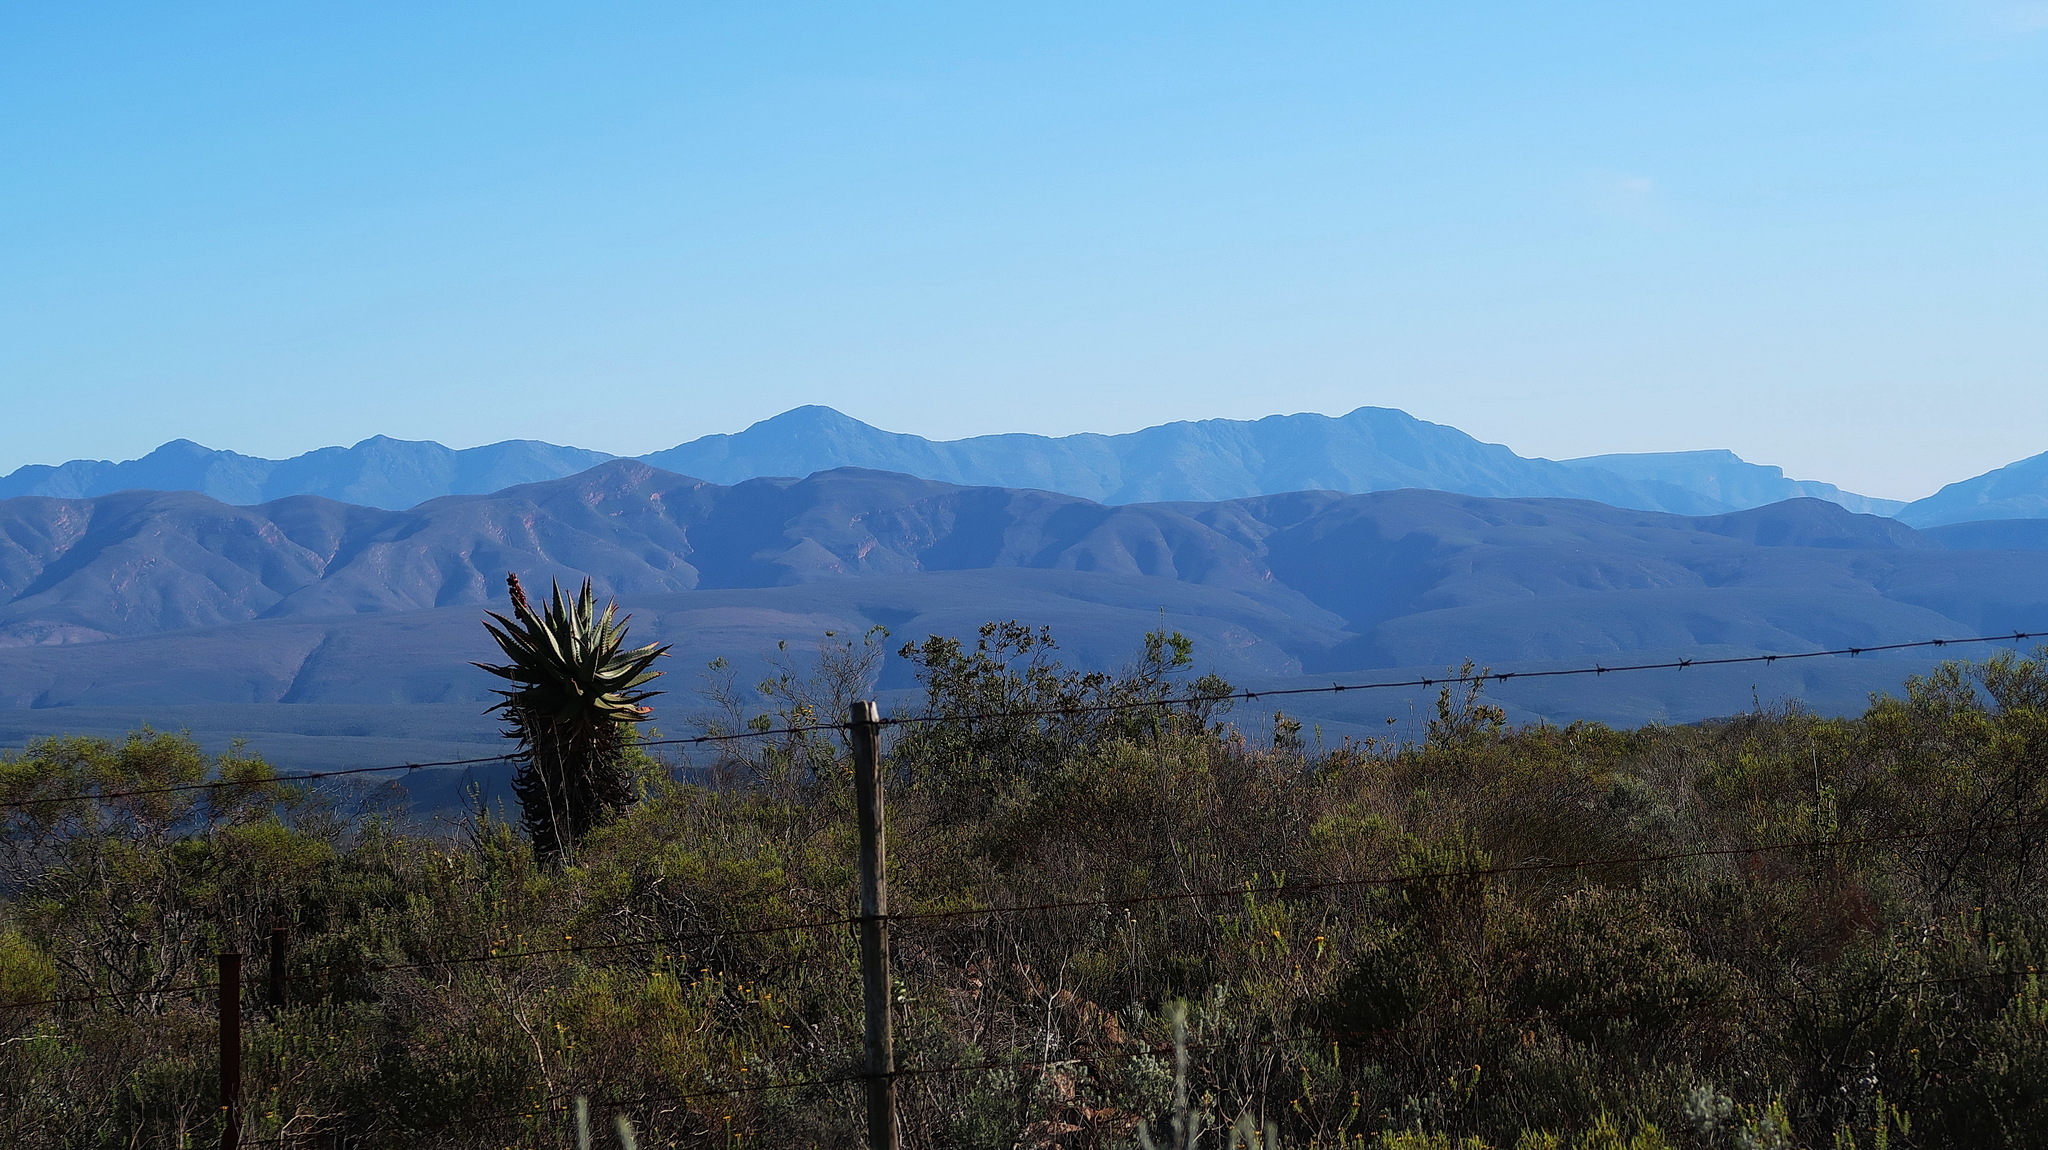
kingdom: Plantae
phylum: Tracheophyta
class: Liliopsida
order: Asparagales
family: Asphodelaceae
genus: Aloe
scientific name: Aloe ferox
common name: Bitter aloe
